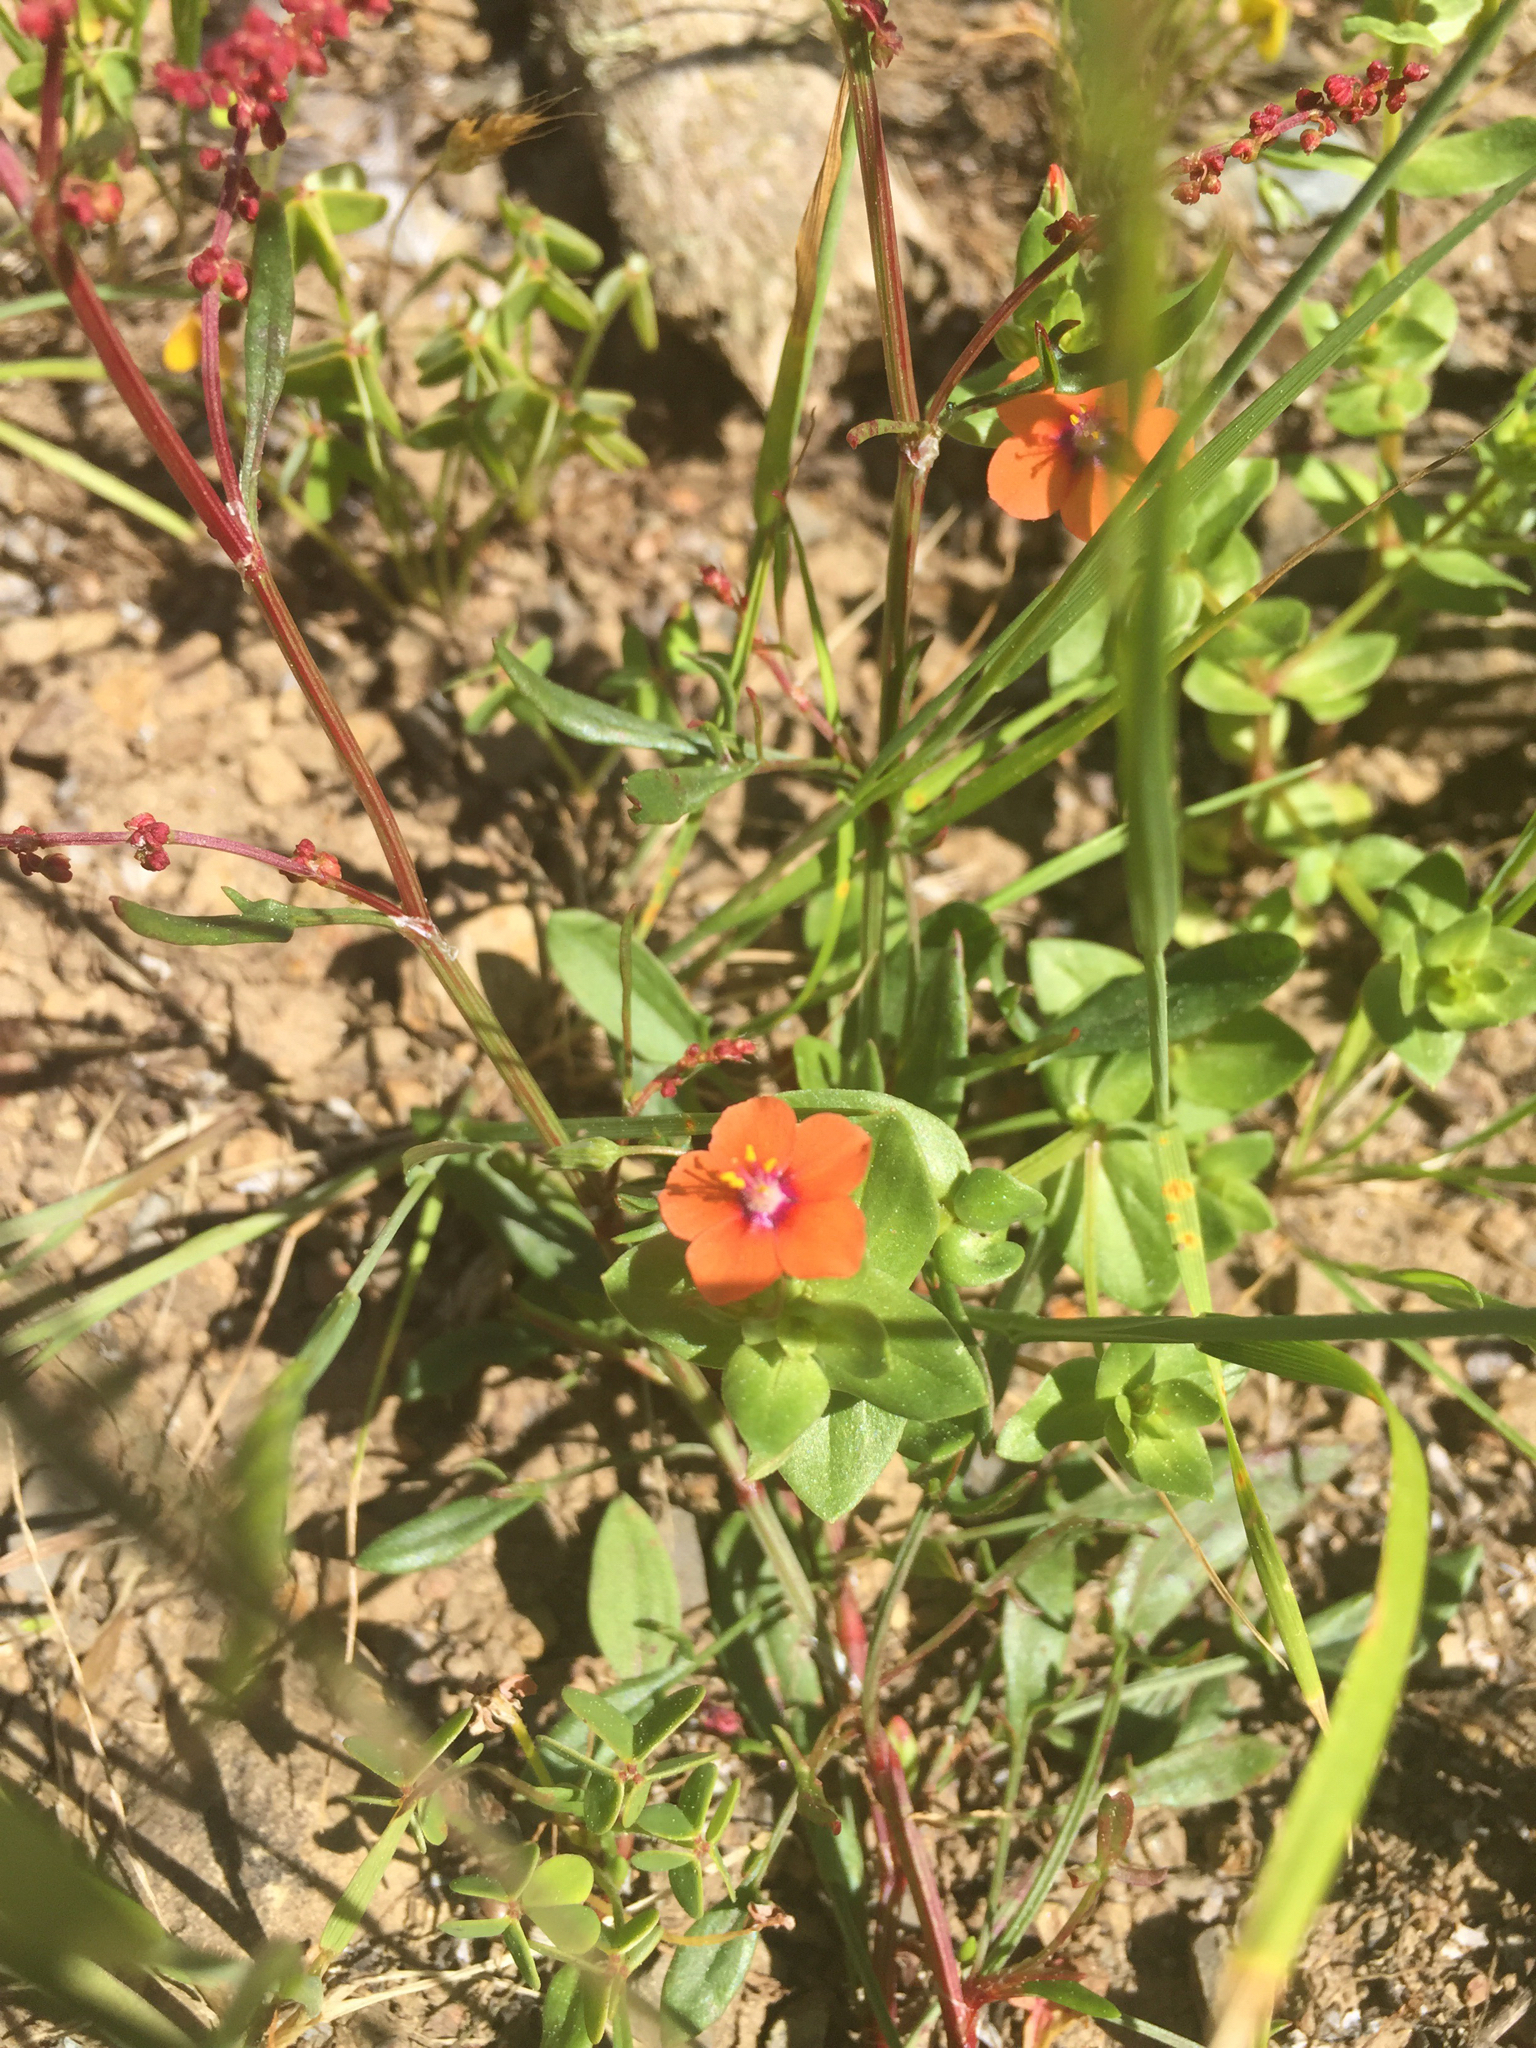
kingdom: Plantae
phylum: Tracheophyta
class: Magnoliopsida
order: Ericales
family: Primulaceae
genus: Lysimachia
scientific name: Lysimachia arvensis
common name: Scarlet pimpernel
